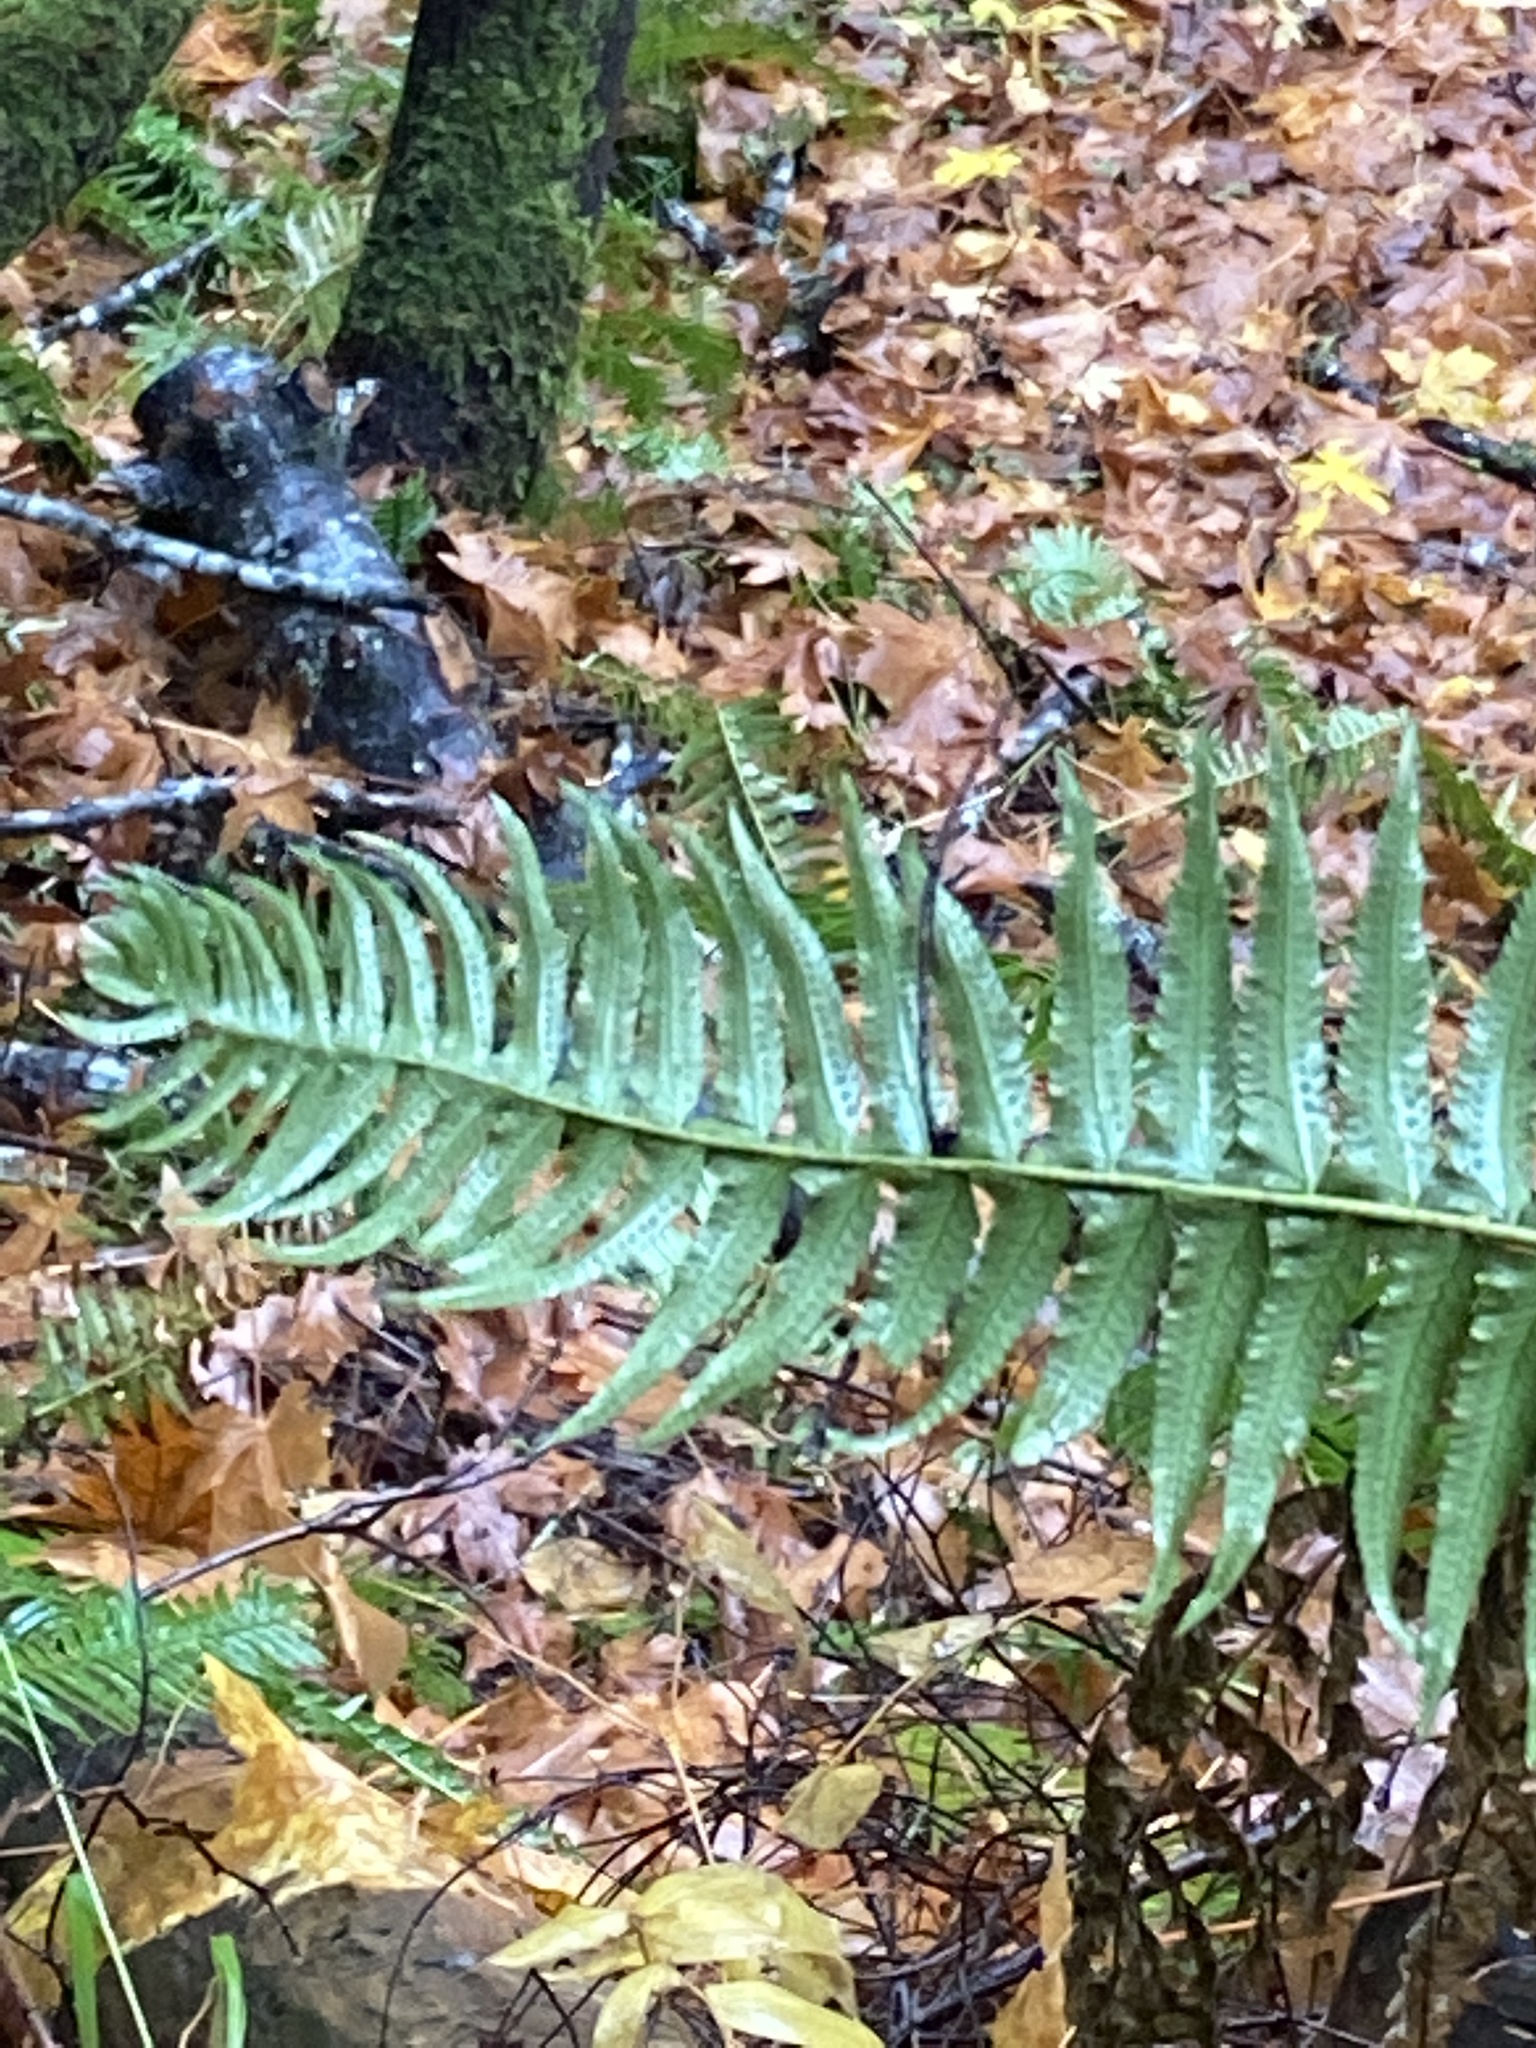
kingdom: Plantae
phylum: Tracheophyta
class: Polypodiopsida
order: Polypodiales
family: Dryopteridaceae
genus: Polystichum
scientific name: Polystichum munitum
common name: Western sword-fern
